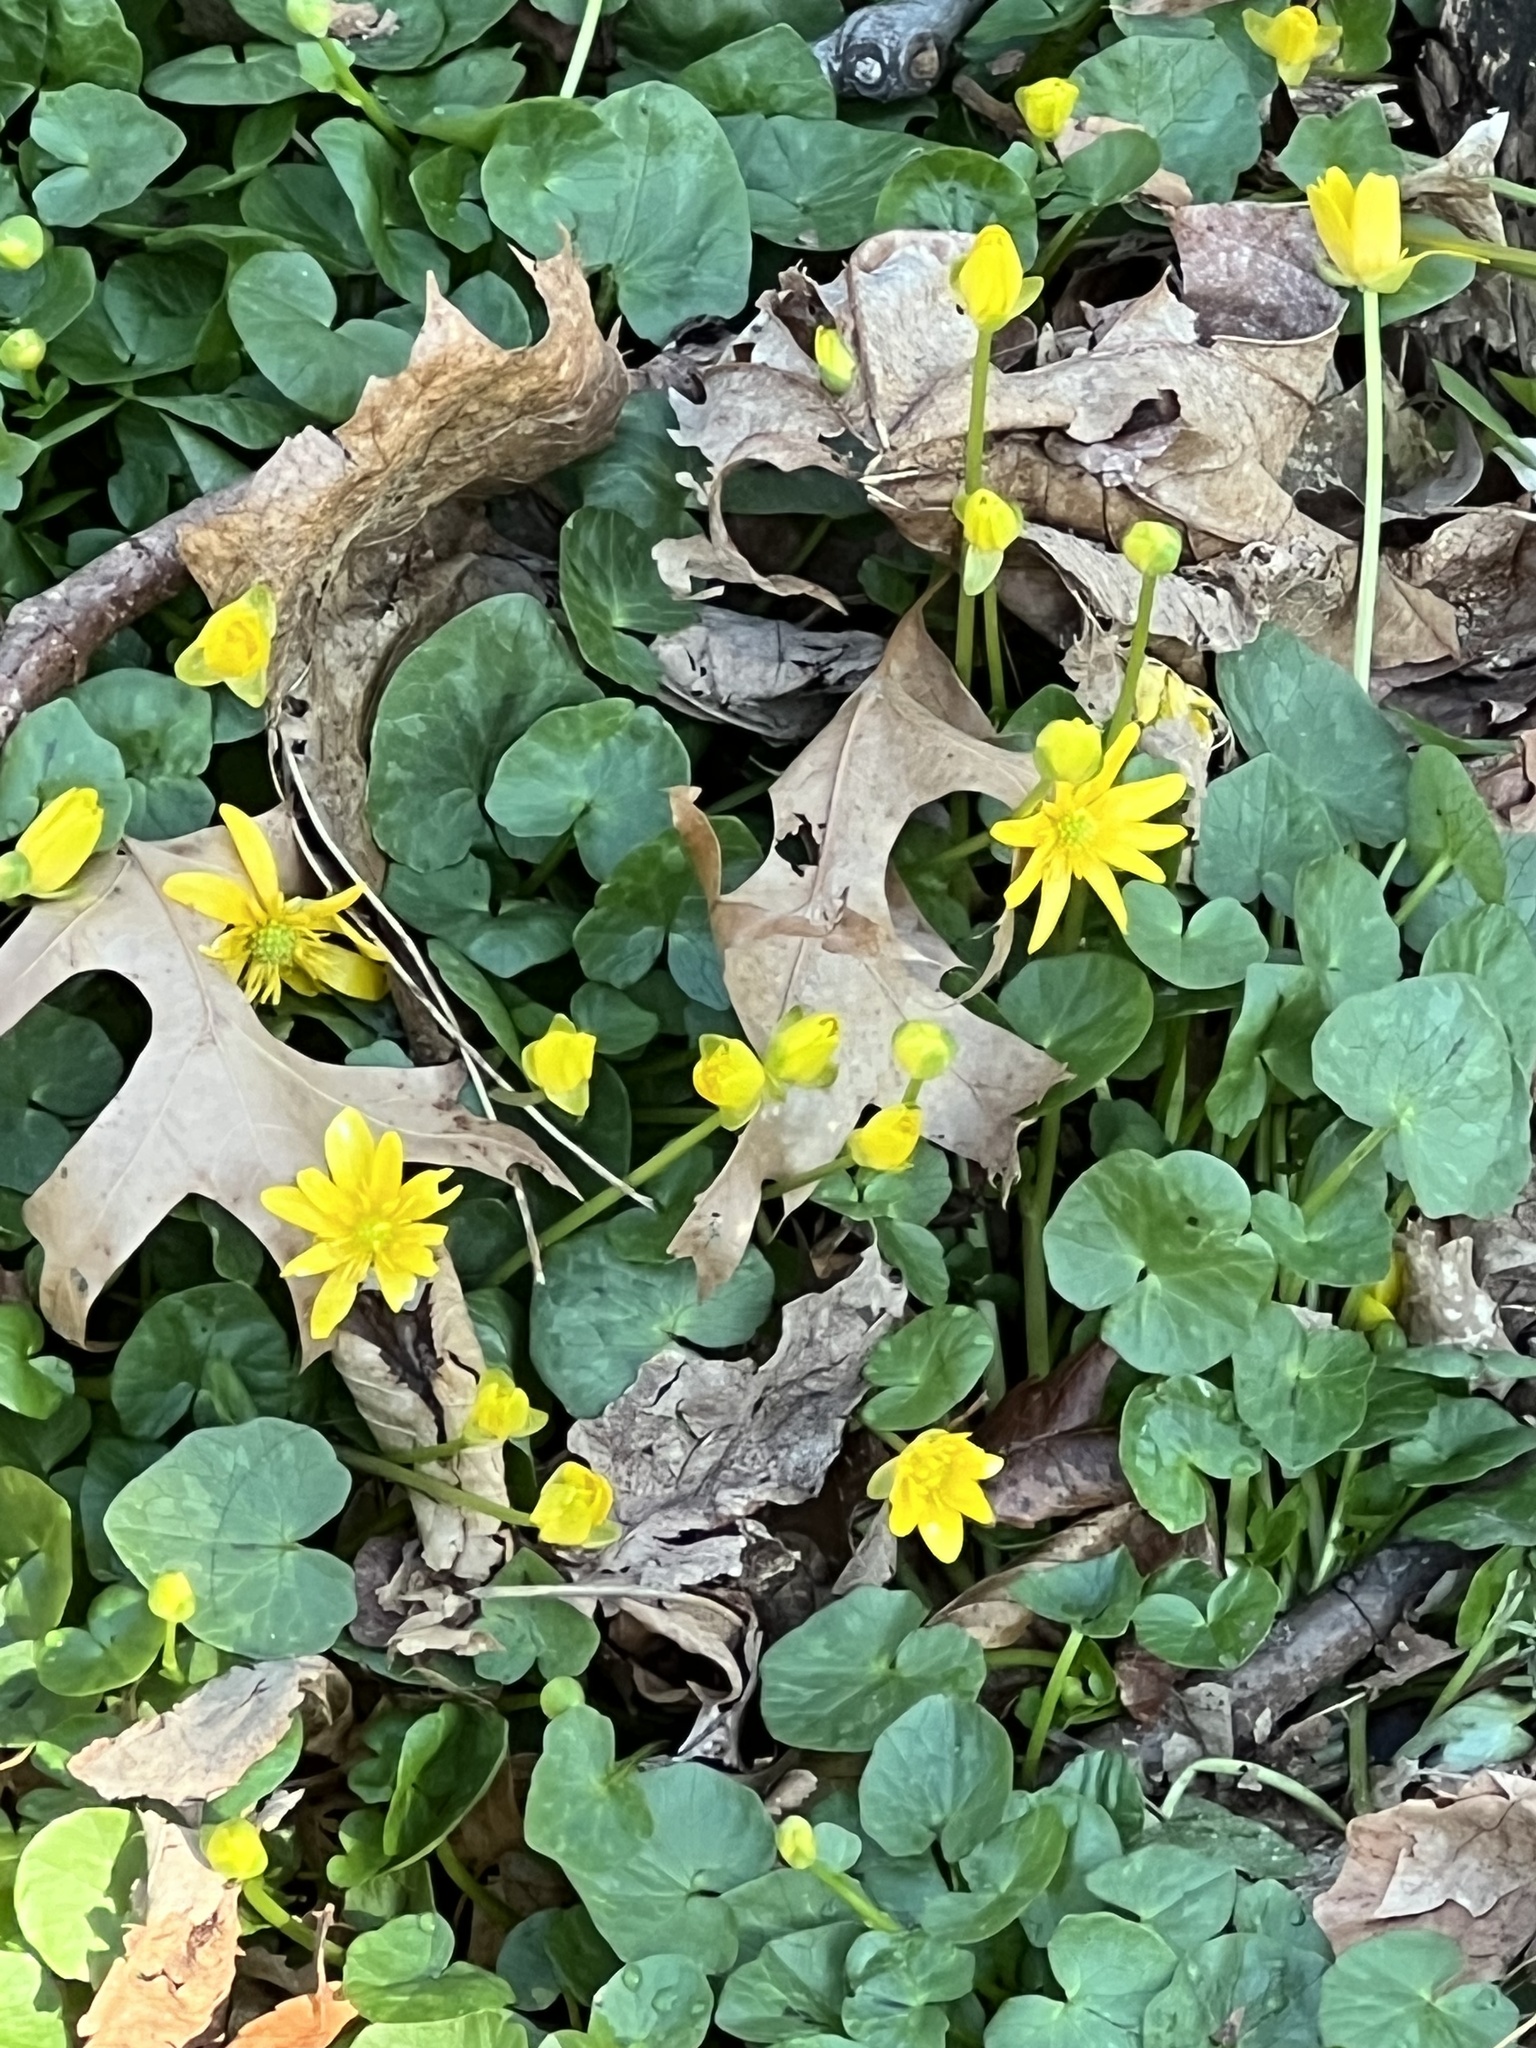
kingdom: Plantae
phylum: Tracheophyta
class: Magnoliopsida
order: Ranunculales
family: Ranunculaceae
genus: Ficaria
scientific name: Ficaria verna
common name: Lesser celandine
